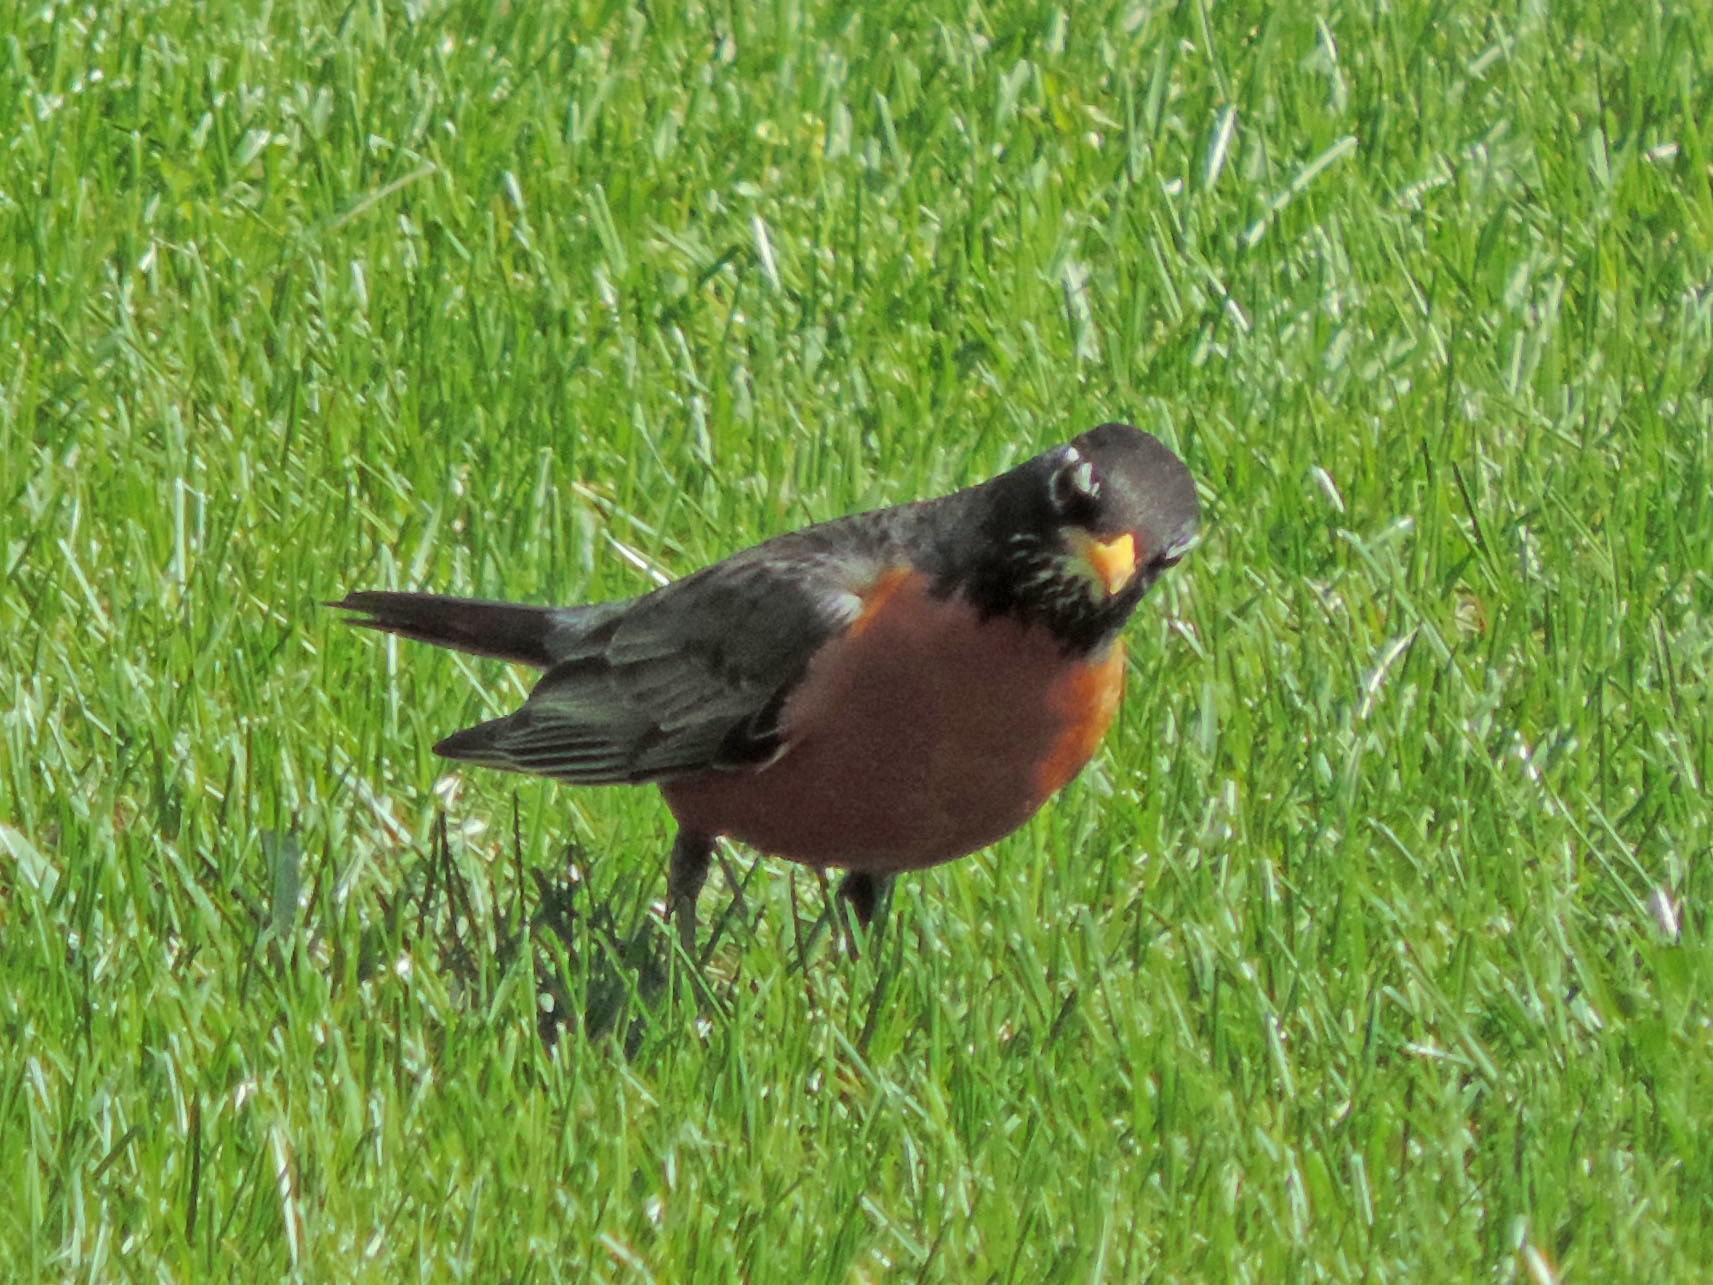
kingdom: Animalia
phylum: Chordata
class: Aves
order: Passeriformes
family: Turdidae
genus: Turdus
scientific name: Turdus migratorius
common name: American robin
